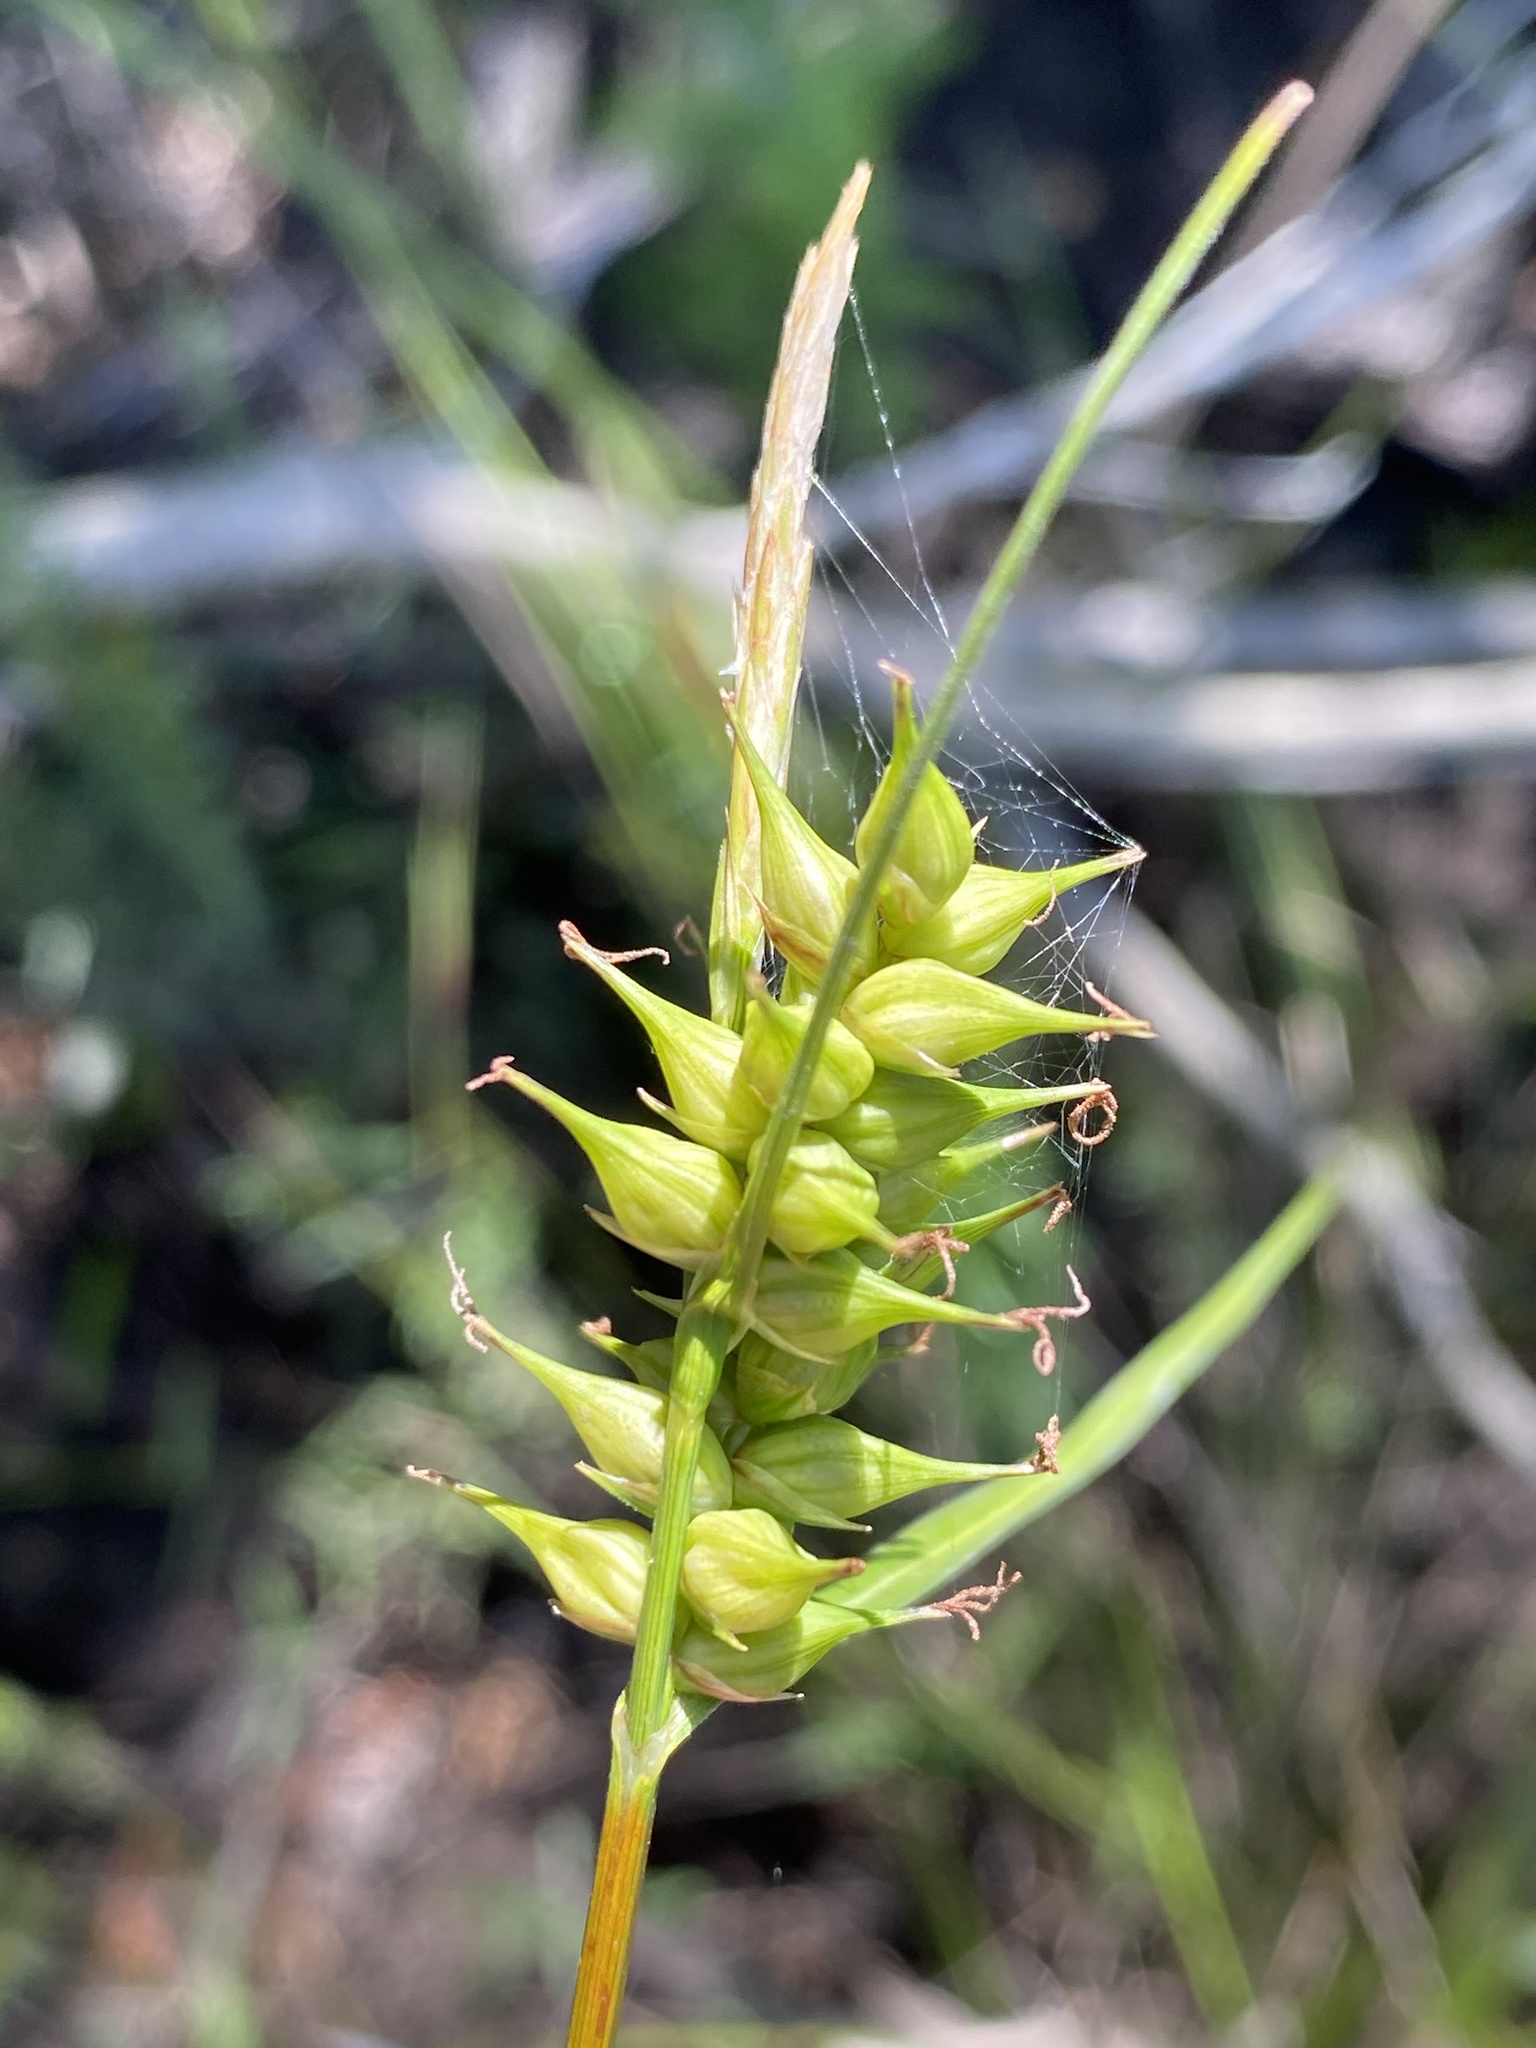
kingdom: Plantae
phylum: Tracheophyta
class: Liliopsida
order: Poales
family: Cyperaceae
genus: Carex
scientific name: Carex turgescens
